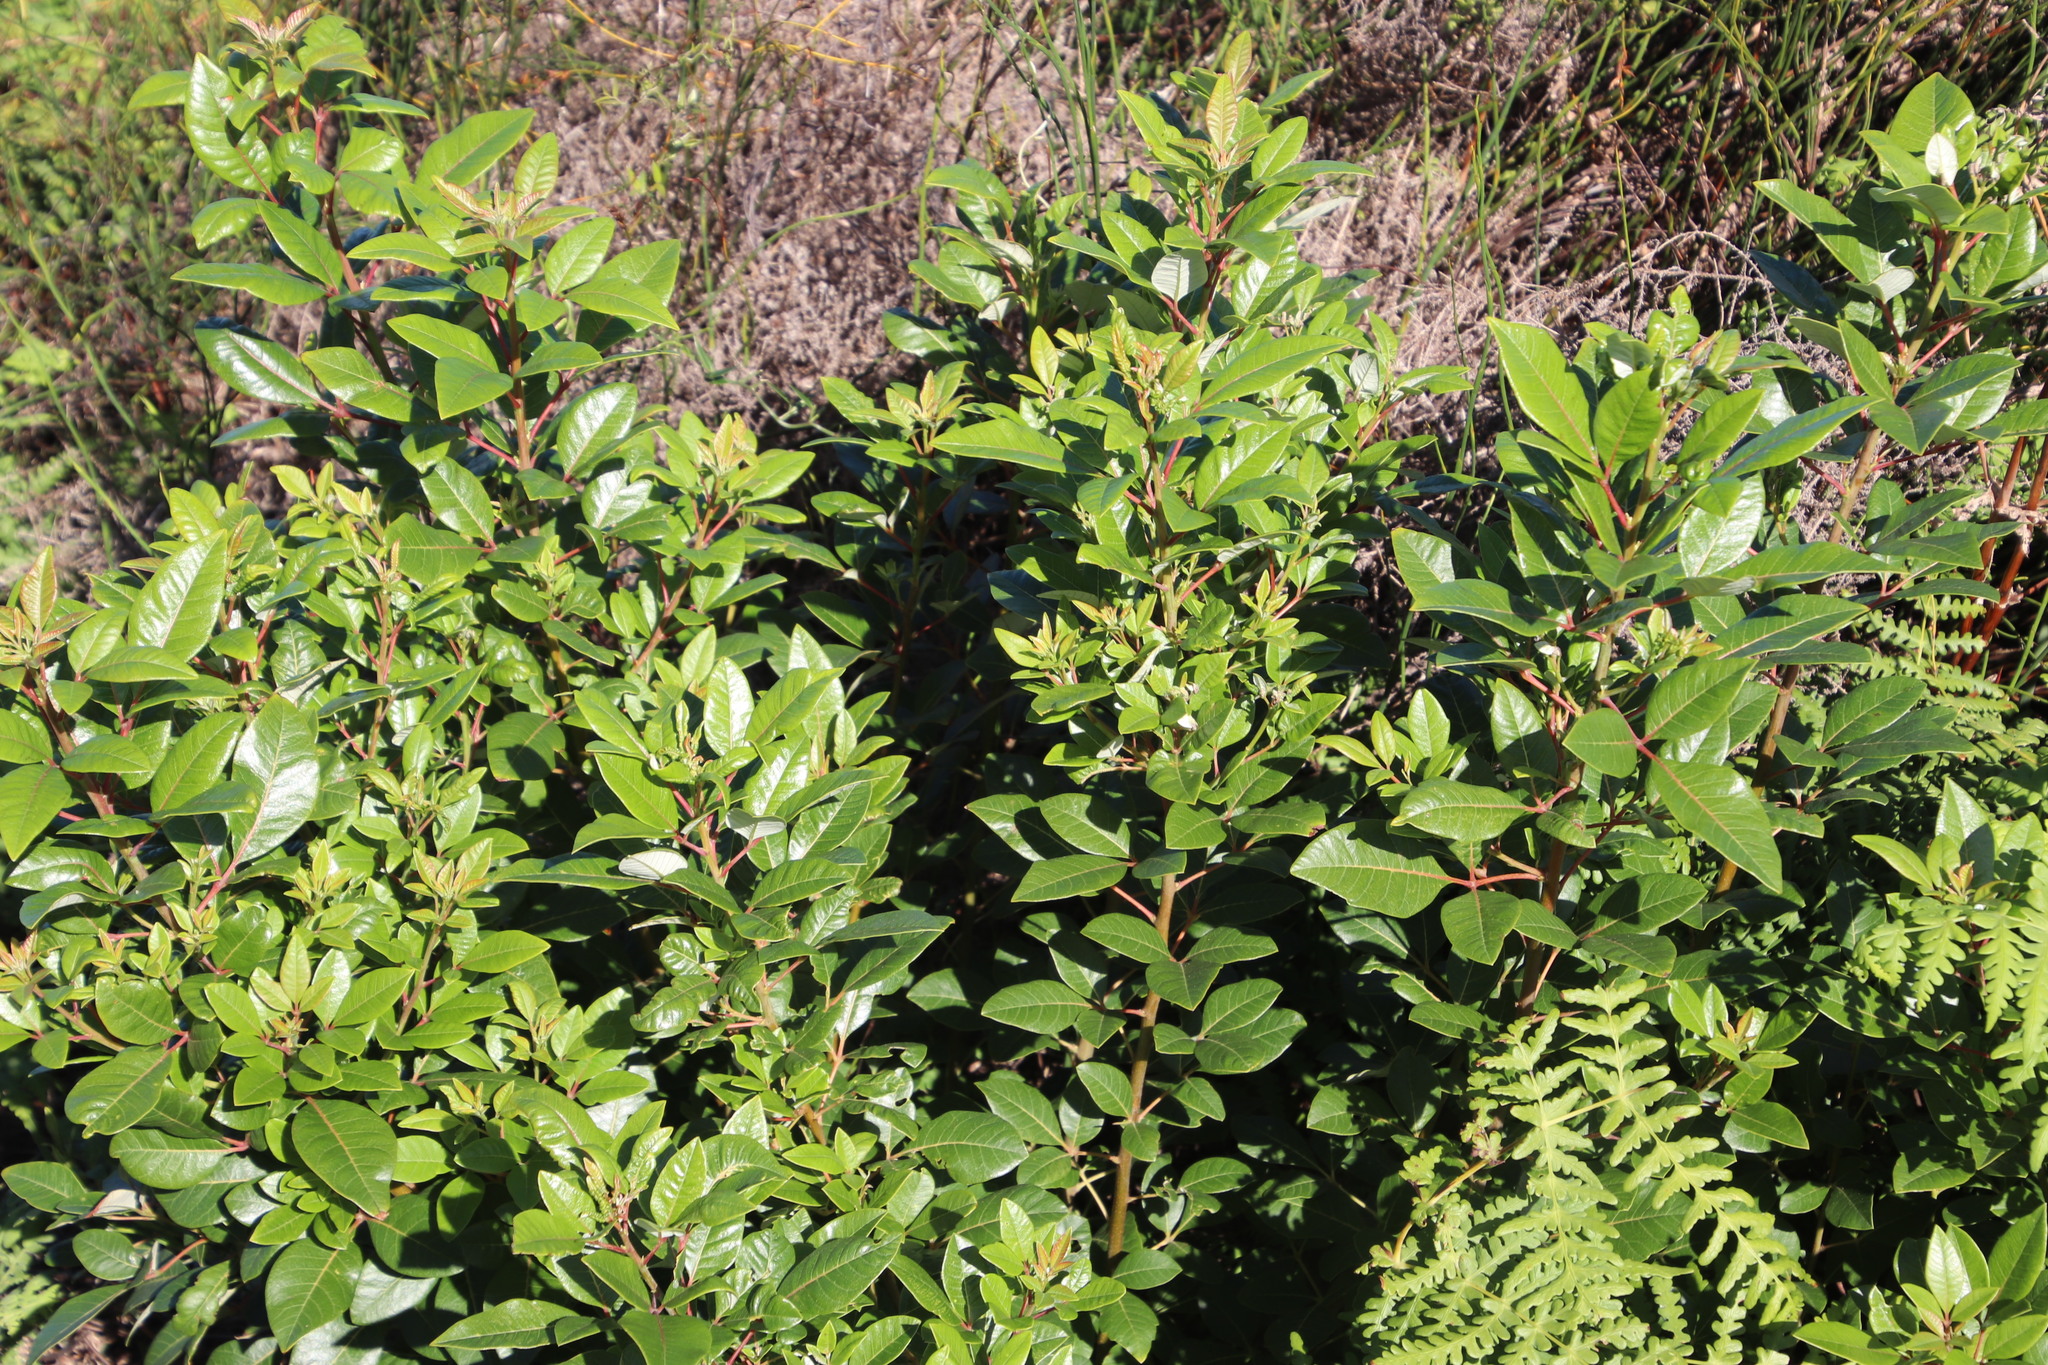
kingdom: Plantae
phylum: Tracheophyta
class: Magnoliopsida
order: Sapindales
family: Anacardiaceae
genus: Searsia
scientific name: Searsia tomentosa
